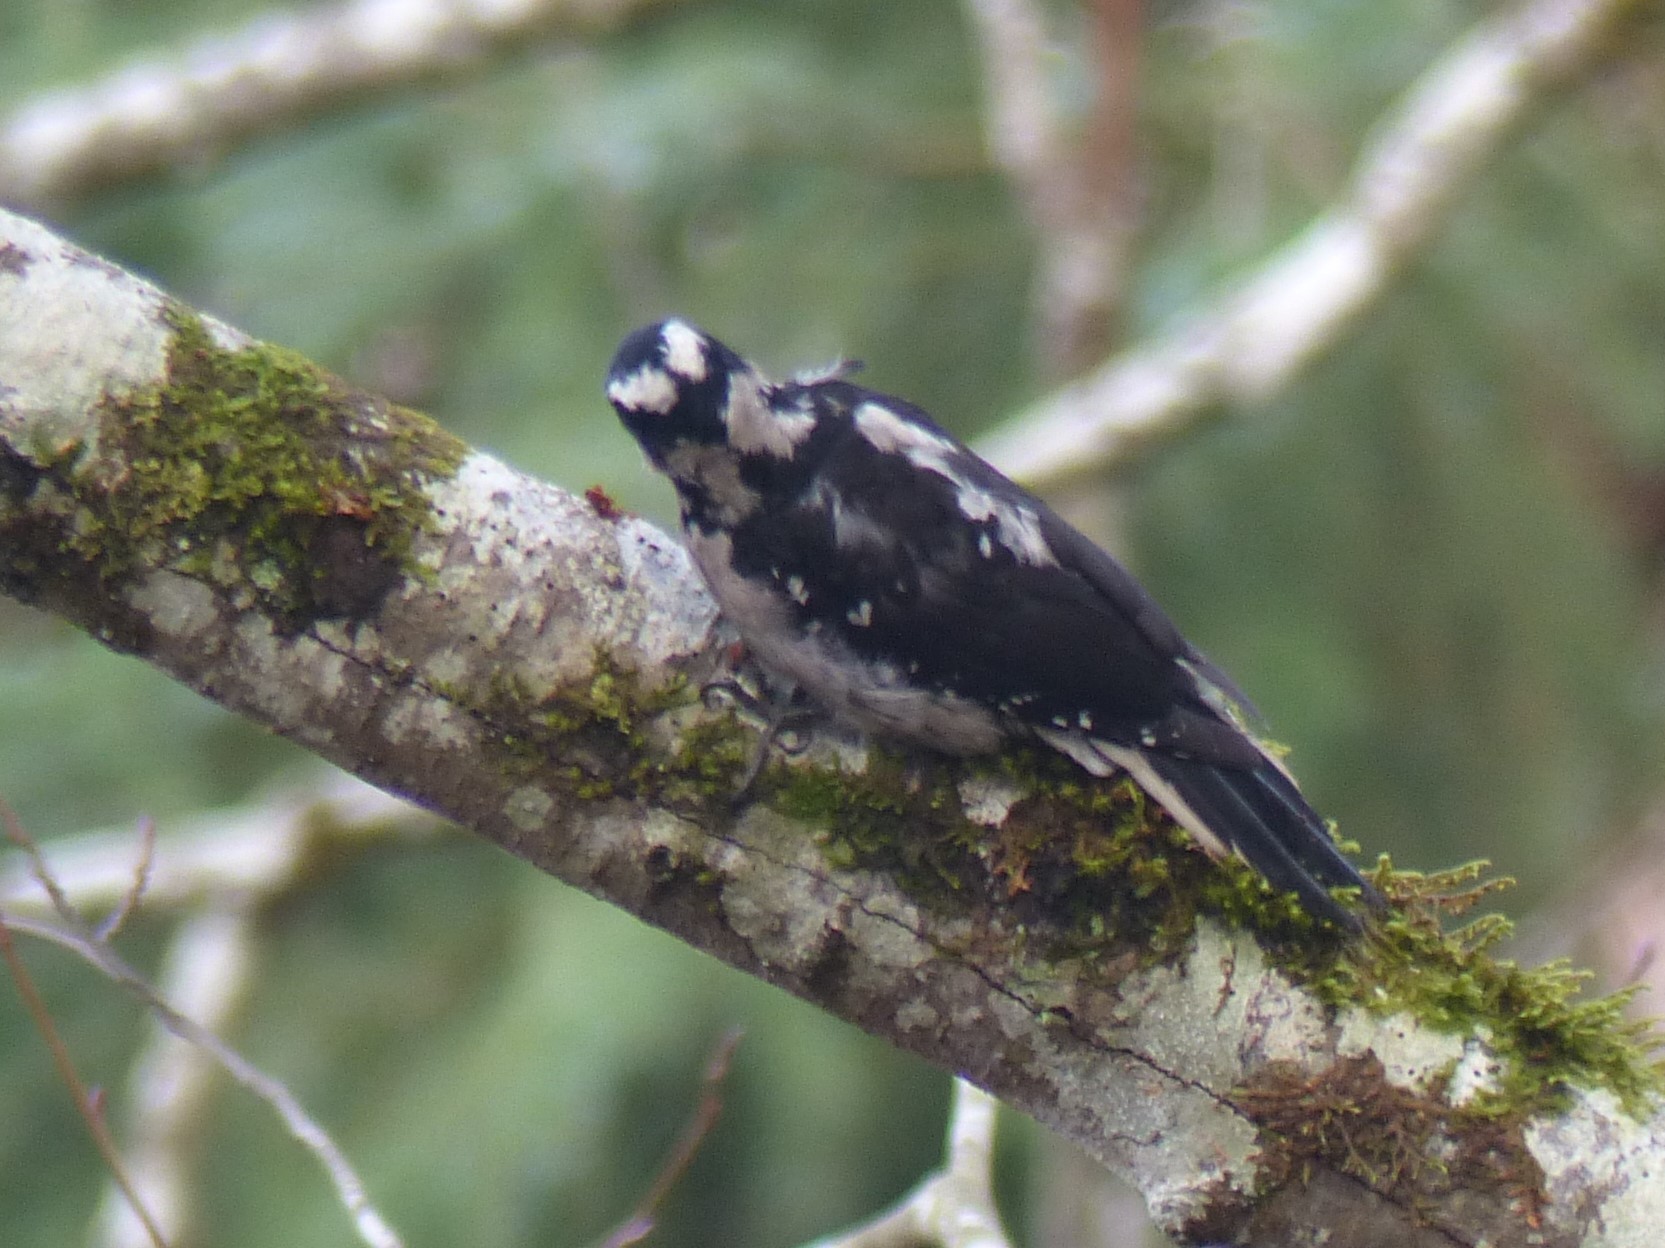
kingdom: Animalia
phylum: Chordata
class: Aves
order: Piciformes
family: Picidae
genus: Leuconotopicus
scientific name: Leuconotopicus villosus
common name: Hairy woodpecker
